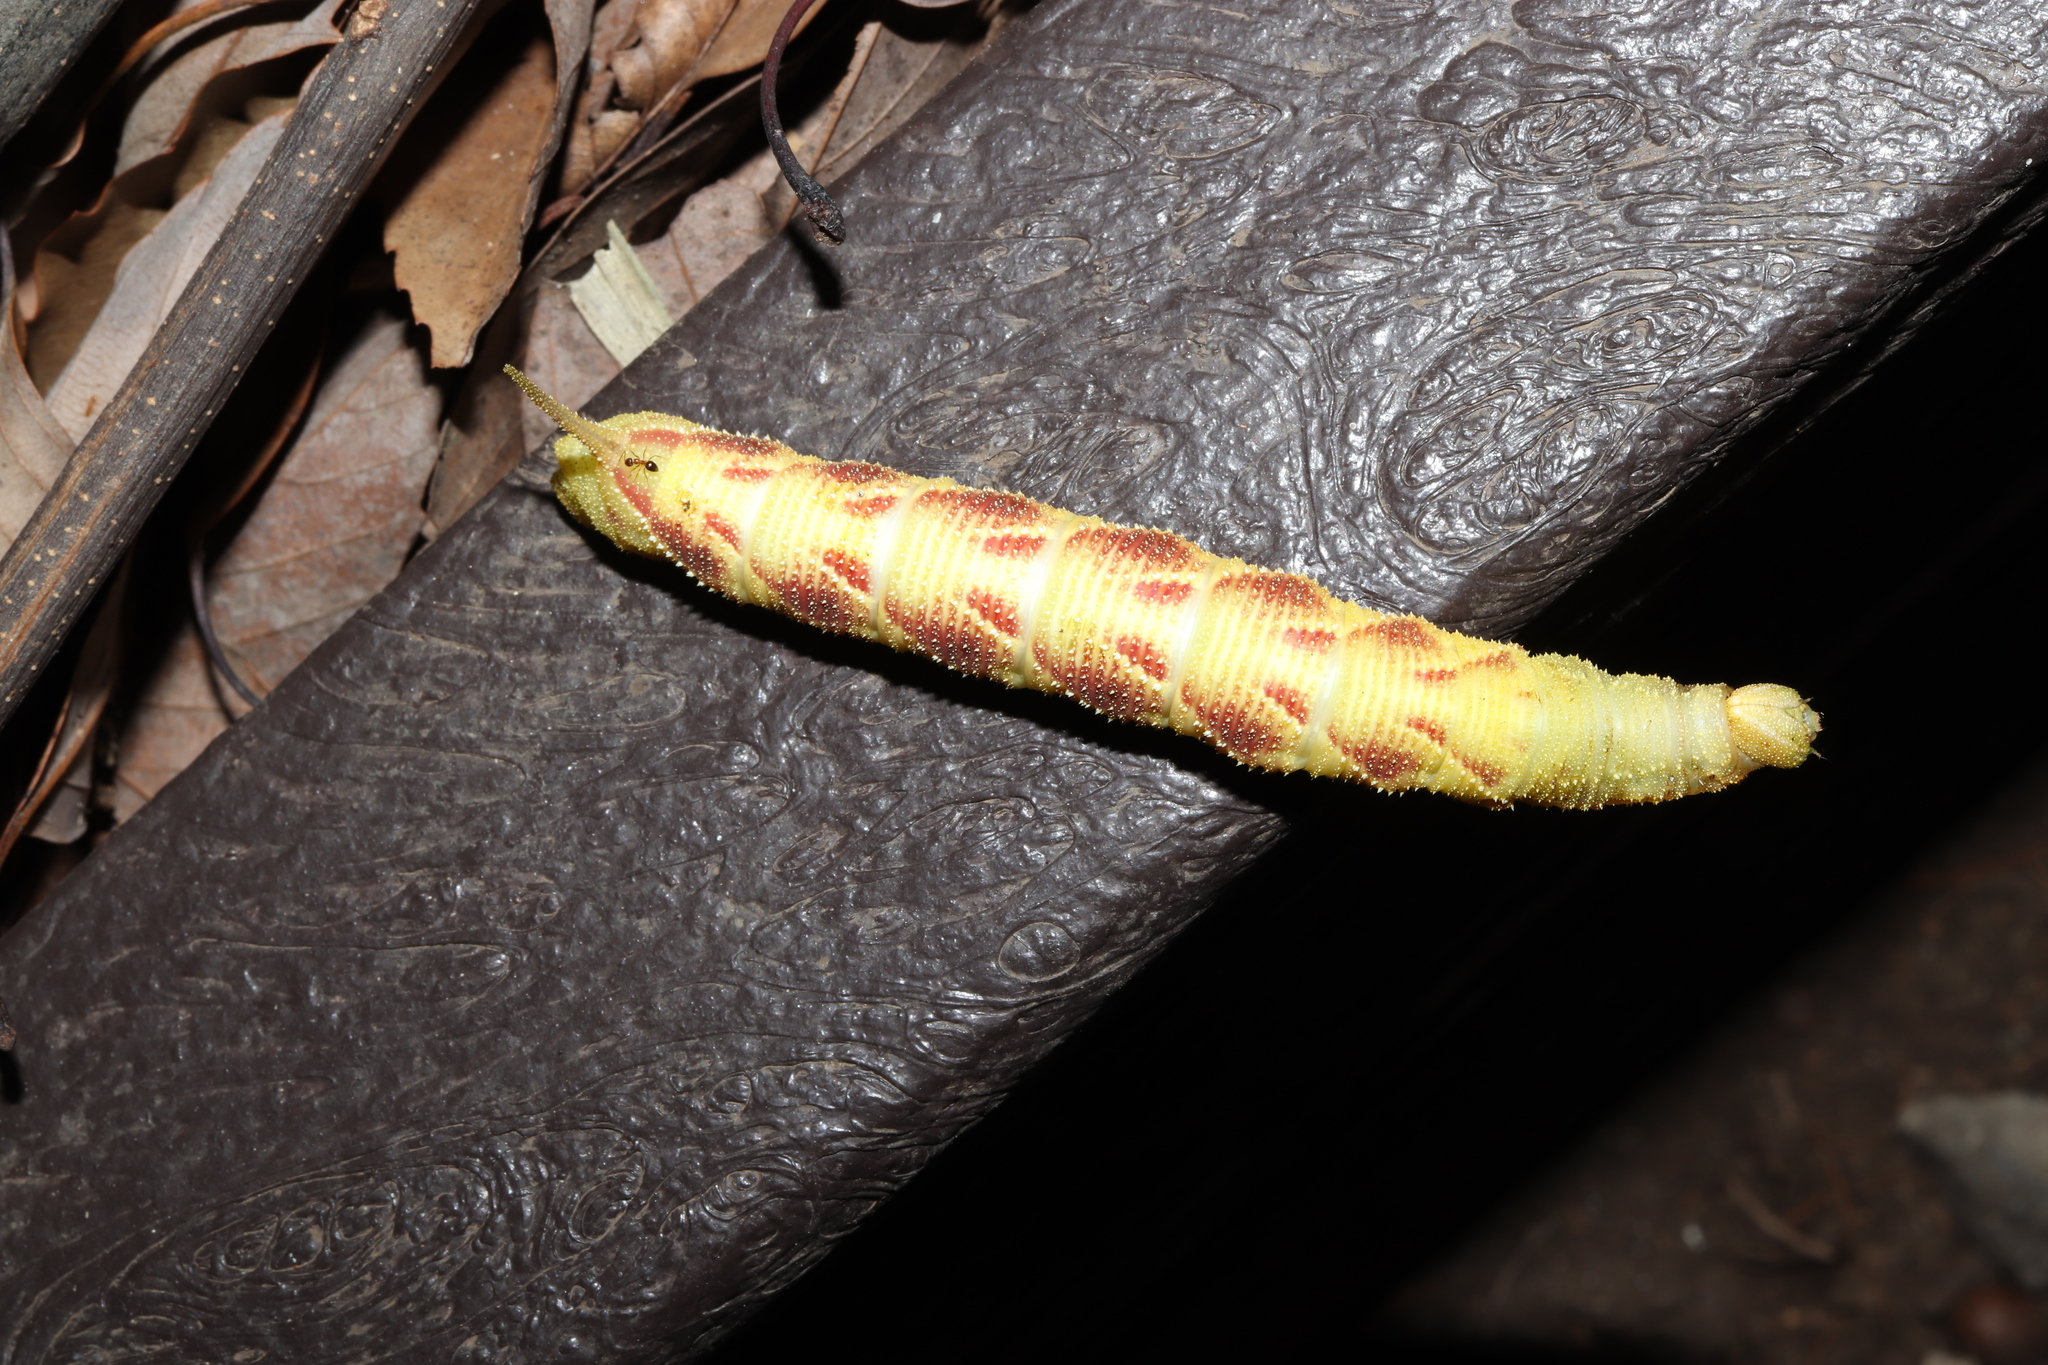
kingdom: Animalia
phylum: Arthropoda
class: Insecta
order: Lepidoptera
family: Sphingidae
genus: Marumba
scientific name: Marumba echephron
